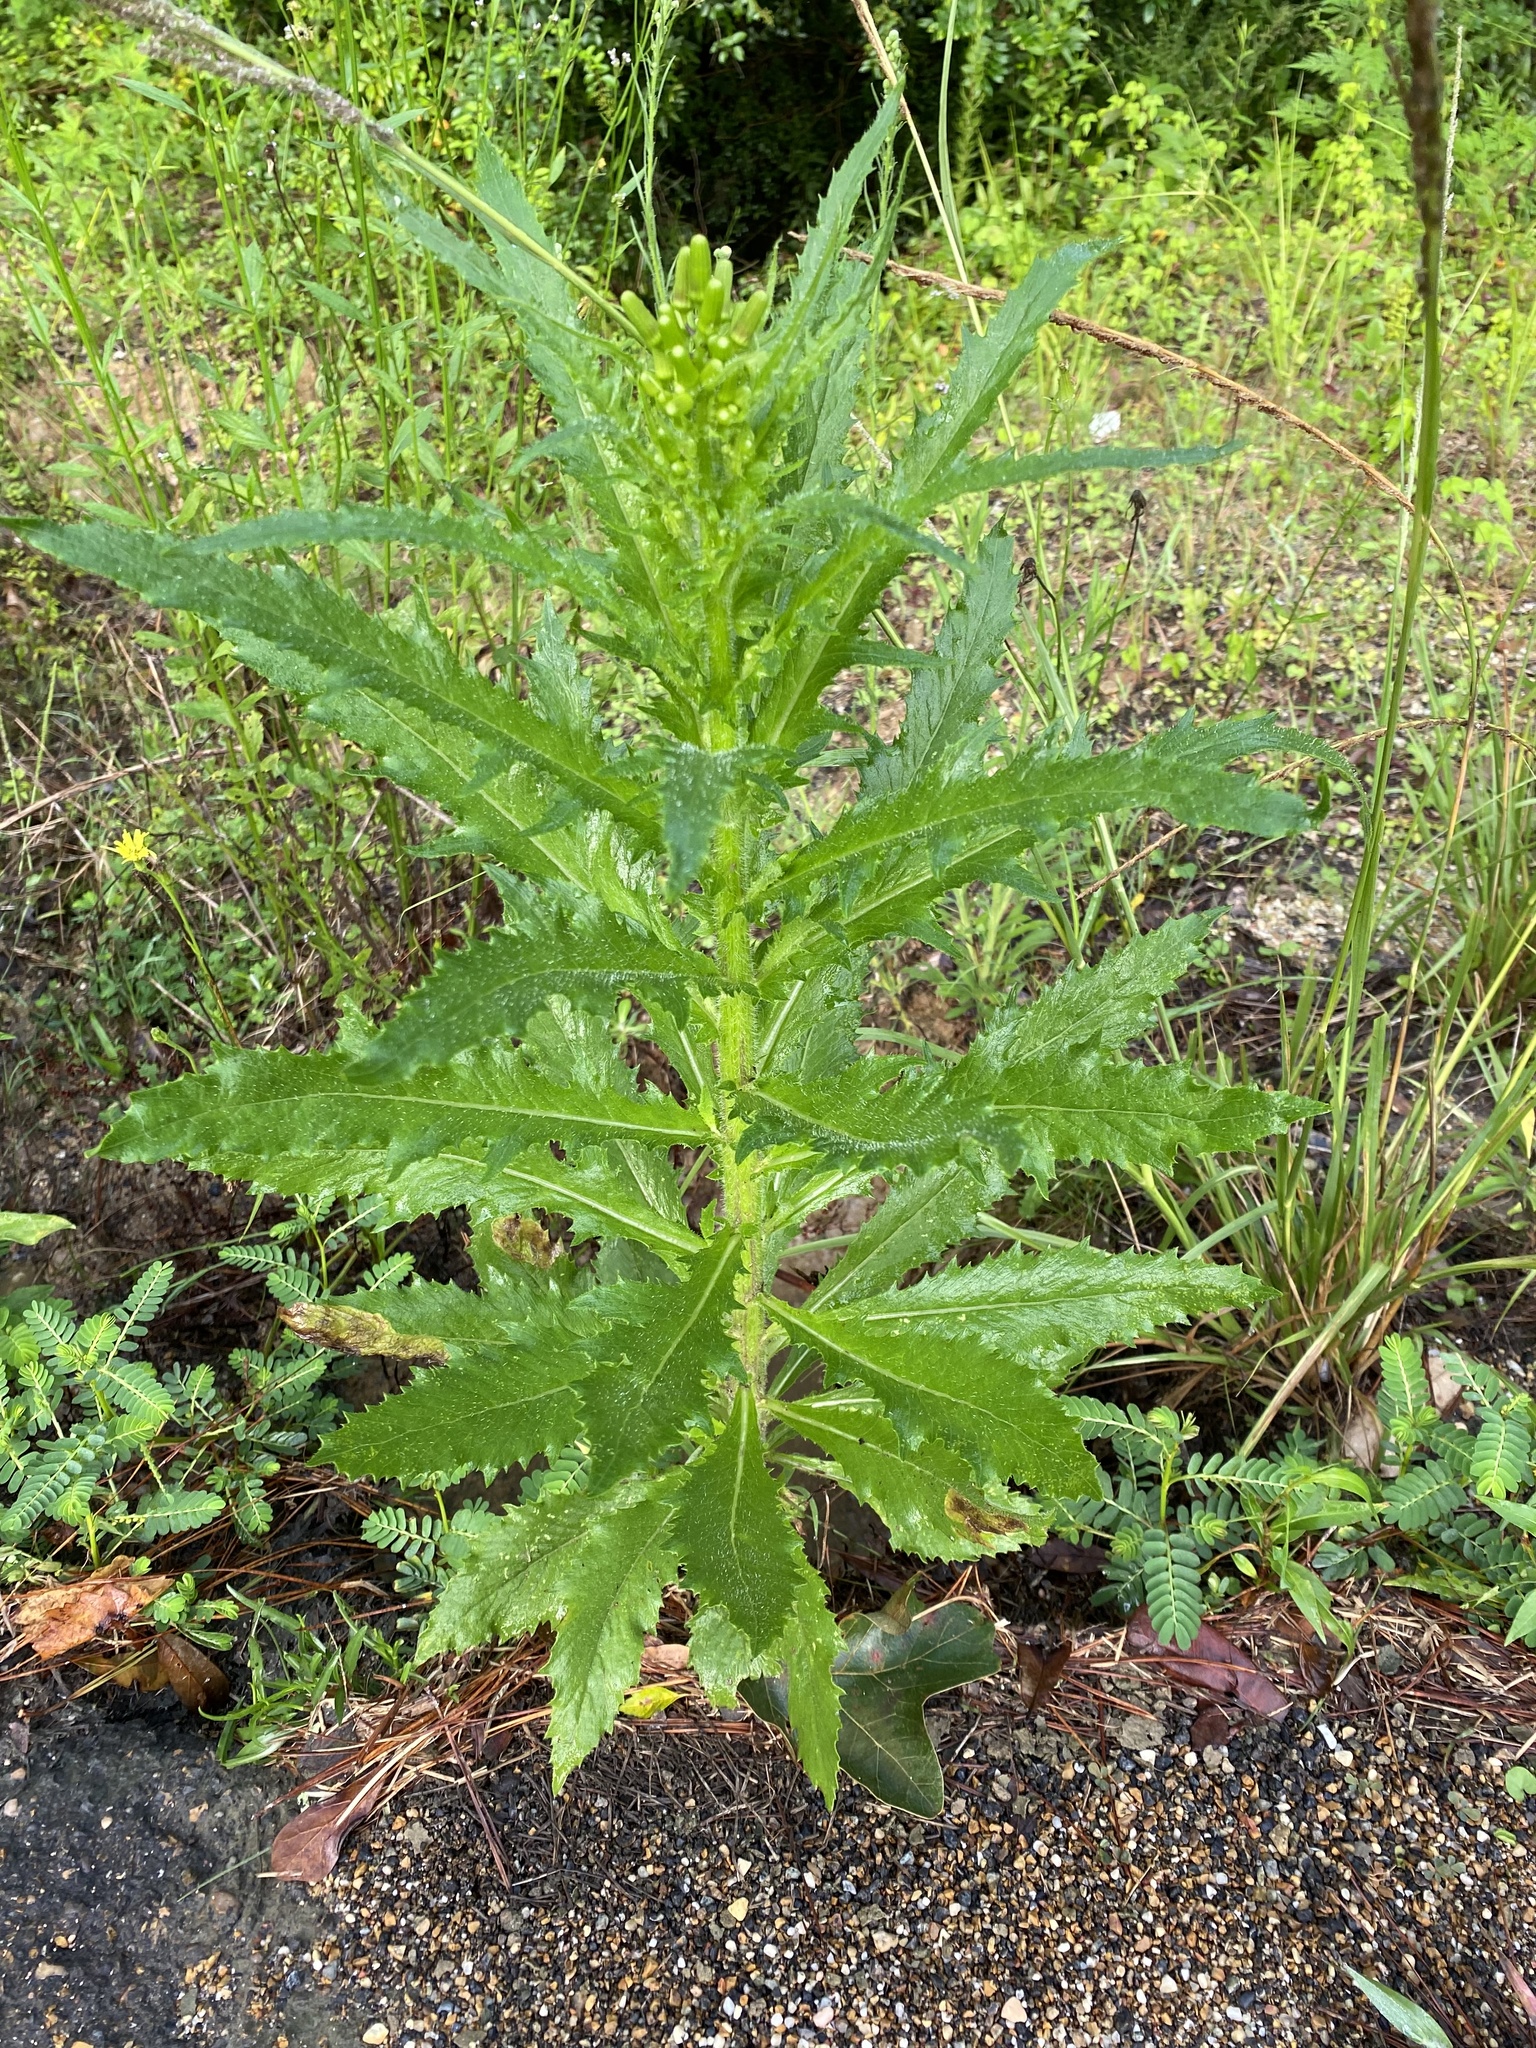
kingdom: Plantae
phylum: Tracheophyta
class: Magnoliopsida
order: Asterales
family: Asteraceae
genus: Erechtites
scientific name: Erechtites hieraciifolius
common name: American burnweed
